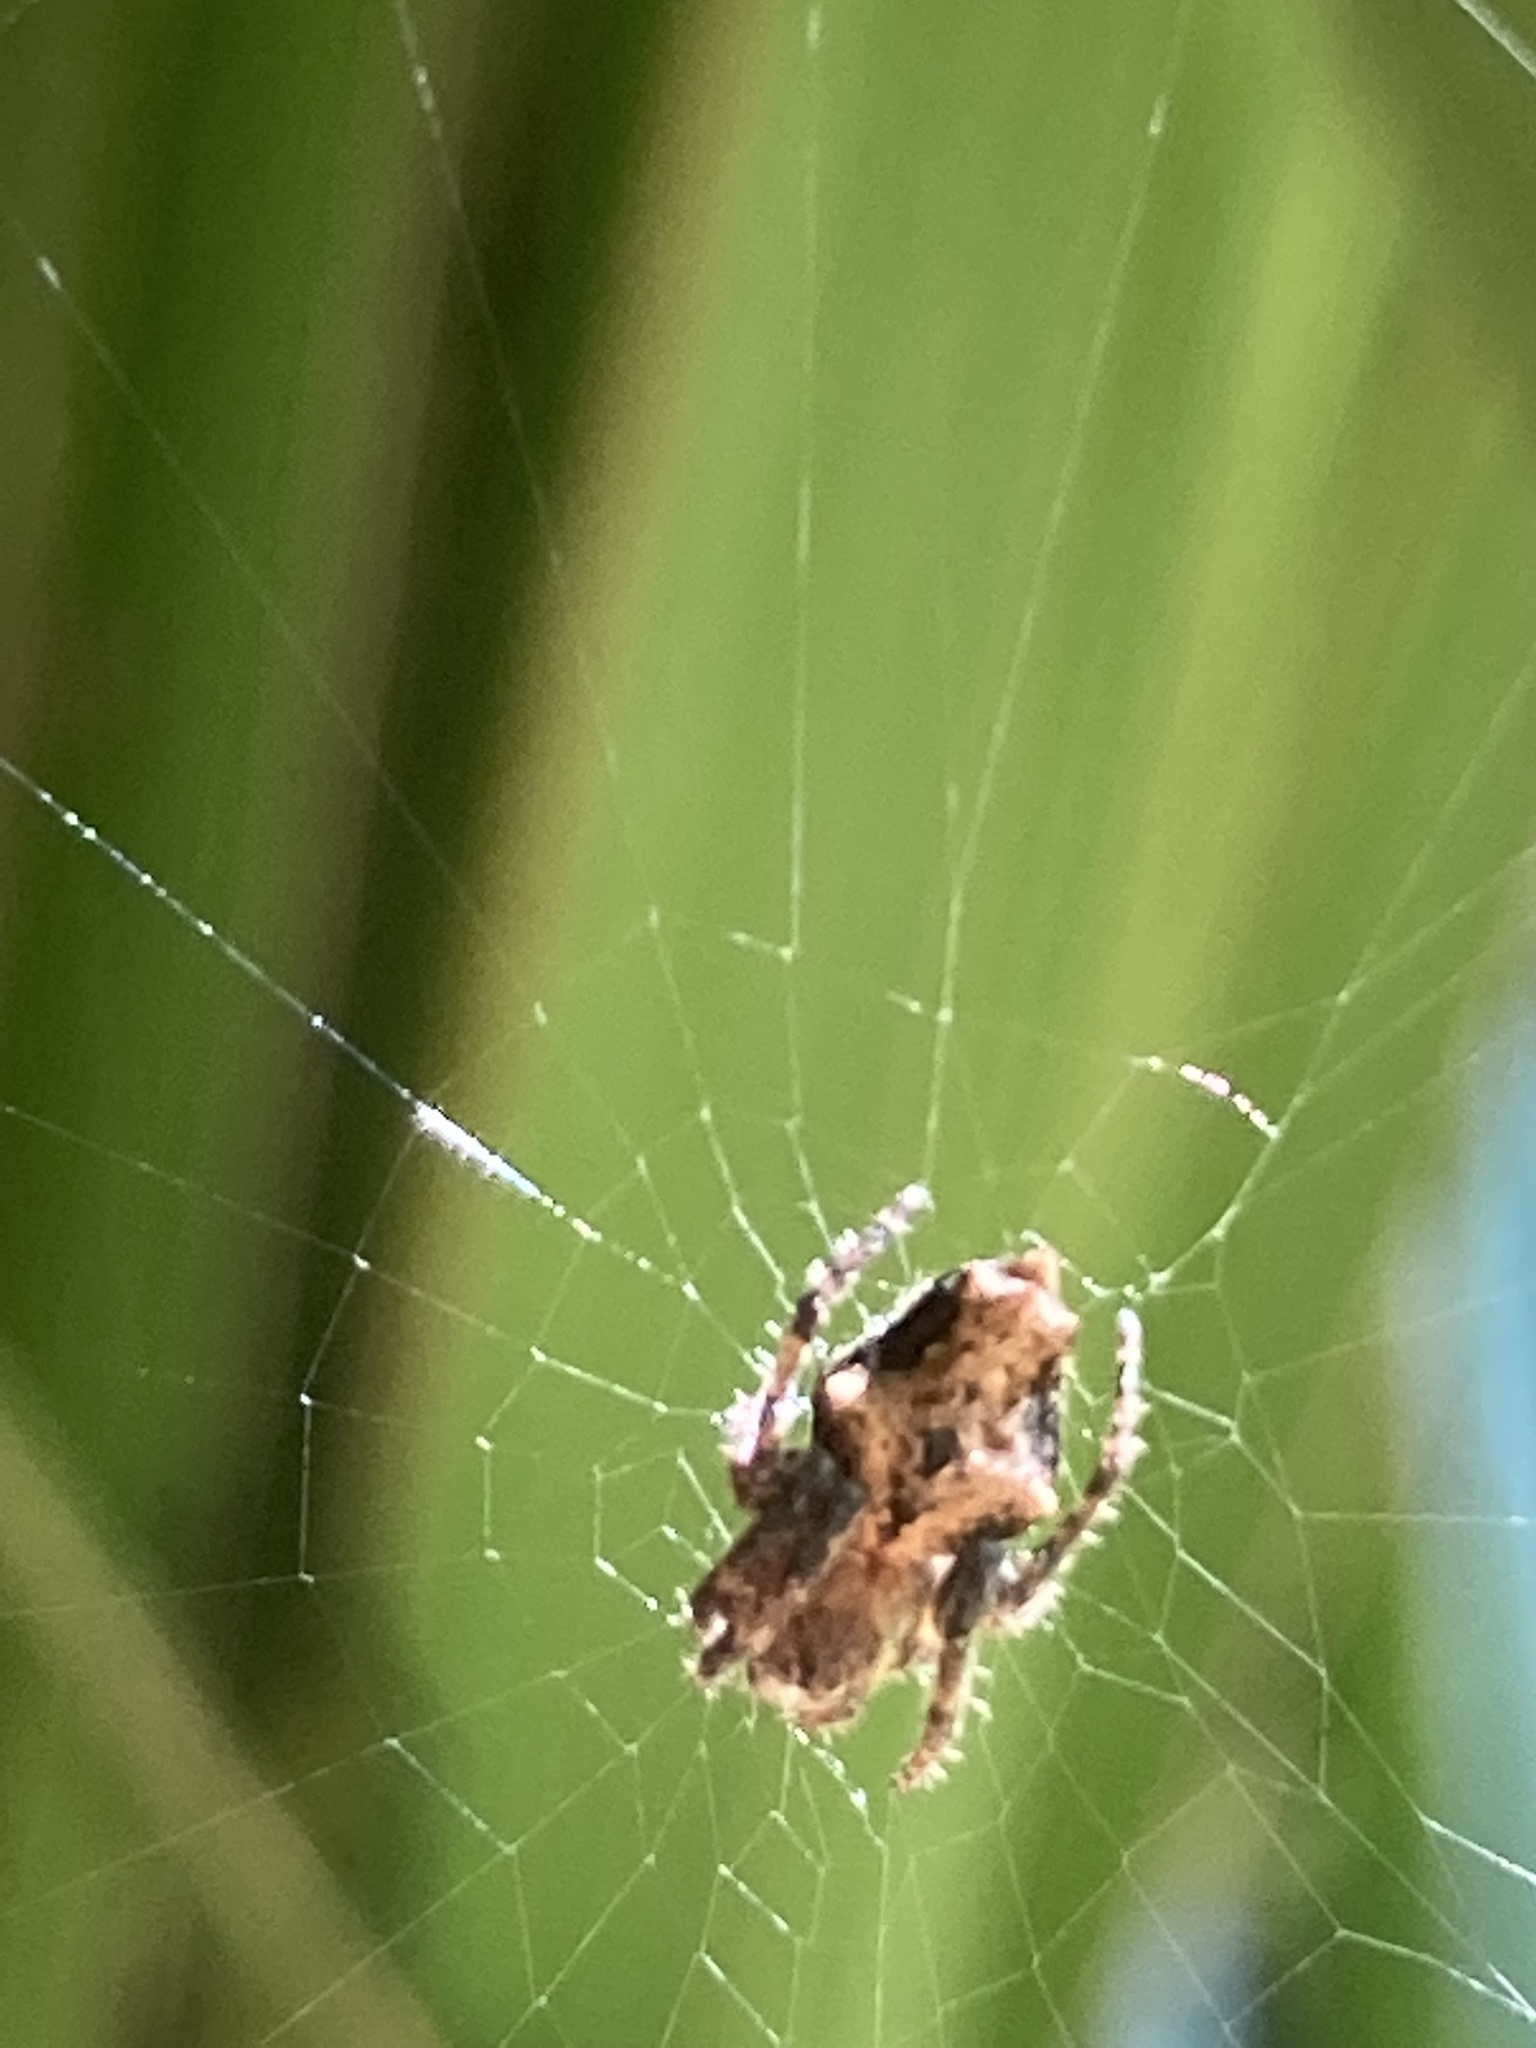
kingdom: Animalia
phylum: Arthropoda
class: Arachnida
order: Araneae
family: Araneidae
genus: Eriophora
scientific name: Eriophora pustulosa
